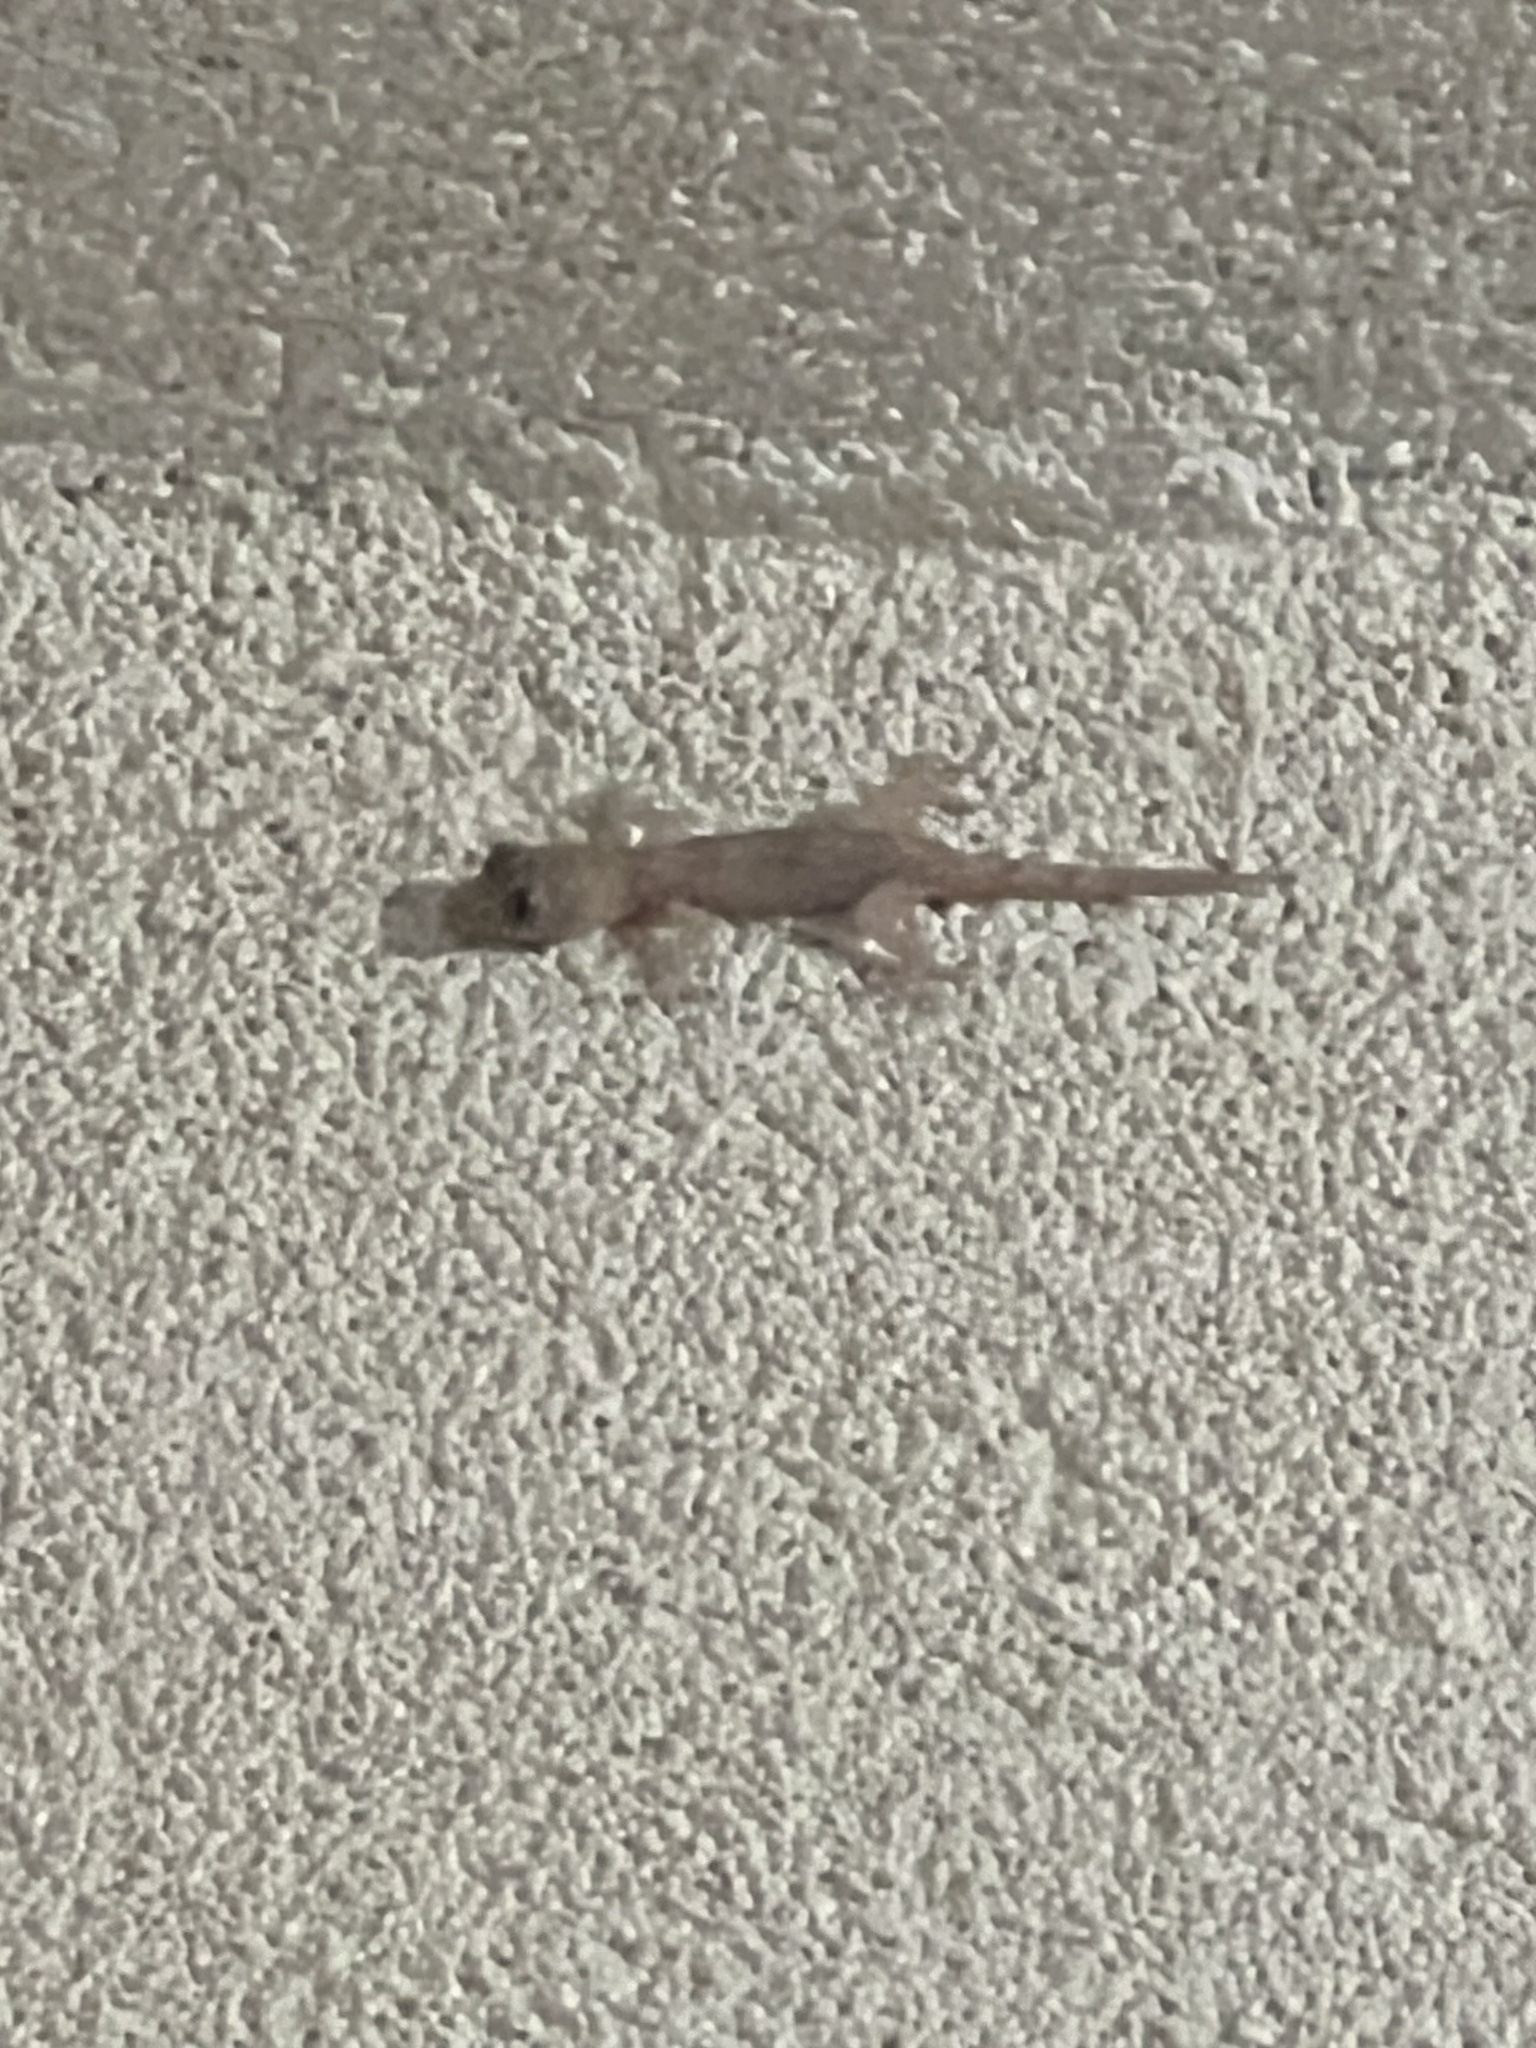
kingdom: Animalia
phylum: Chordata
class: Squamata
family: Gekkonidae
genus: Hemidactylus
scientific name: Hemidactylus mabouia
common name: House gecko
